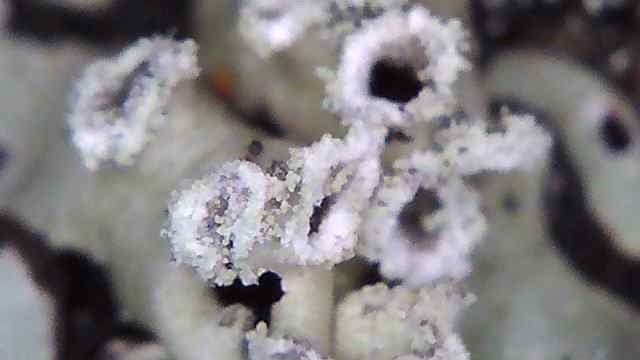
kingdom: Fungi
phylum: Ascomycota
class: Lecanoromycetes
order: Lecanorales
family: Parmeliaceae
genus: Menegazzia
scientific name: Menegazzia subsimilis
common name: Tree flute lichen
